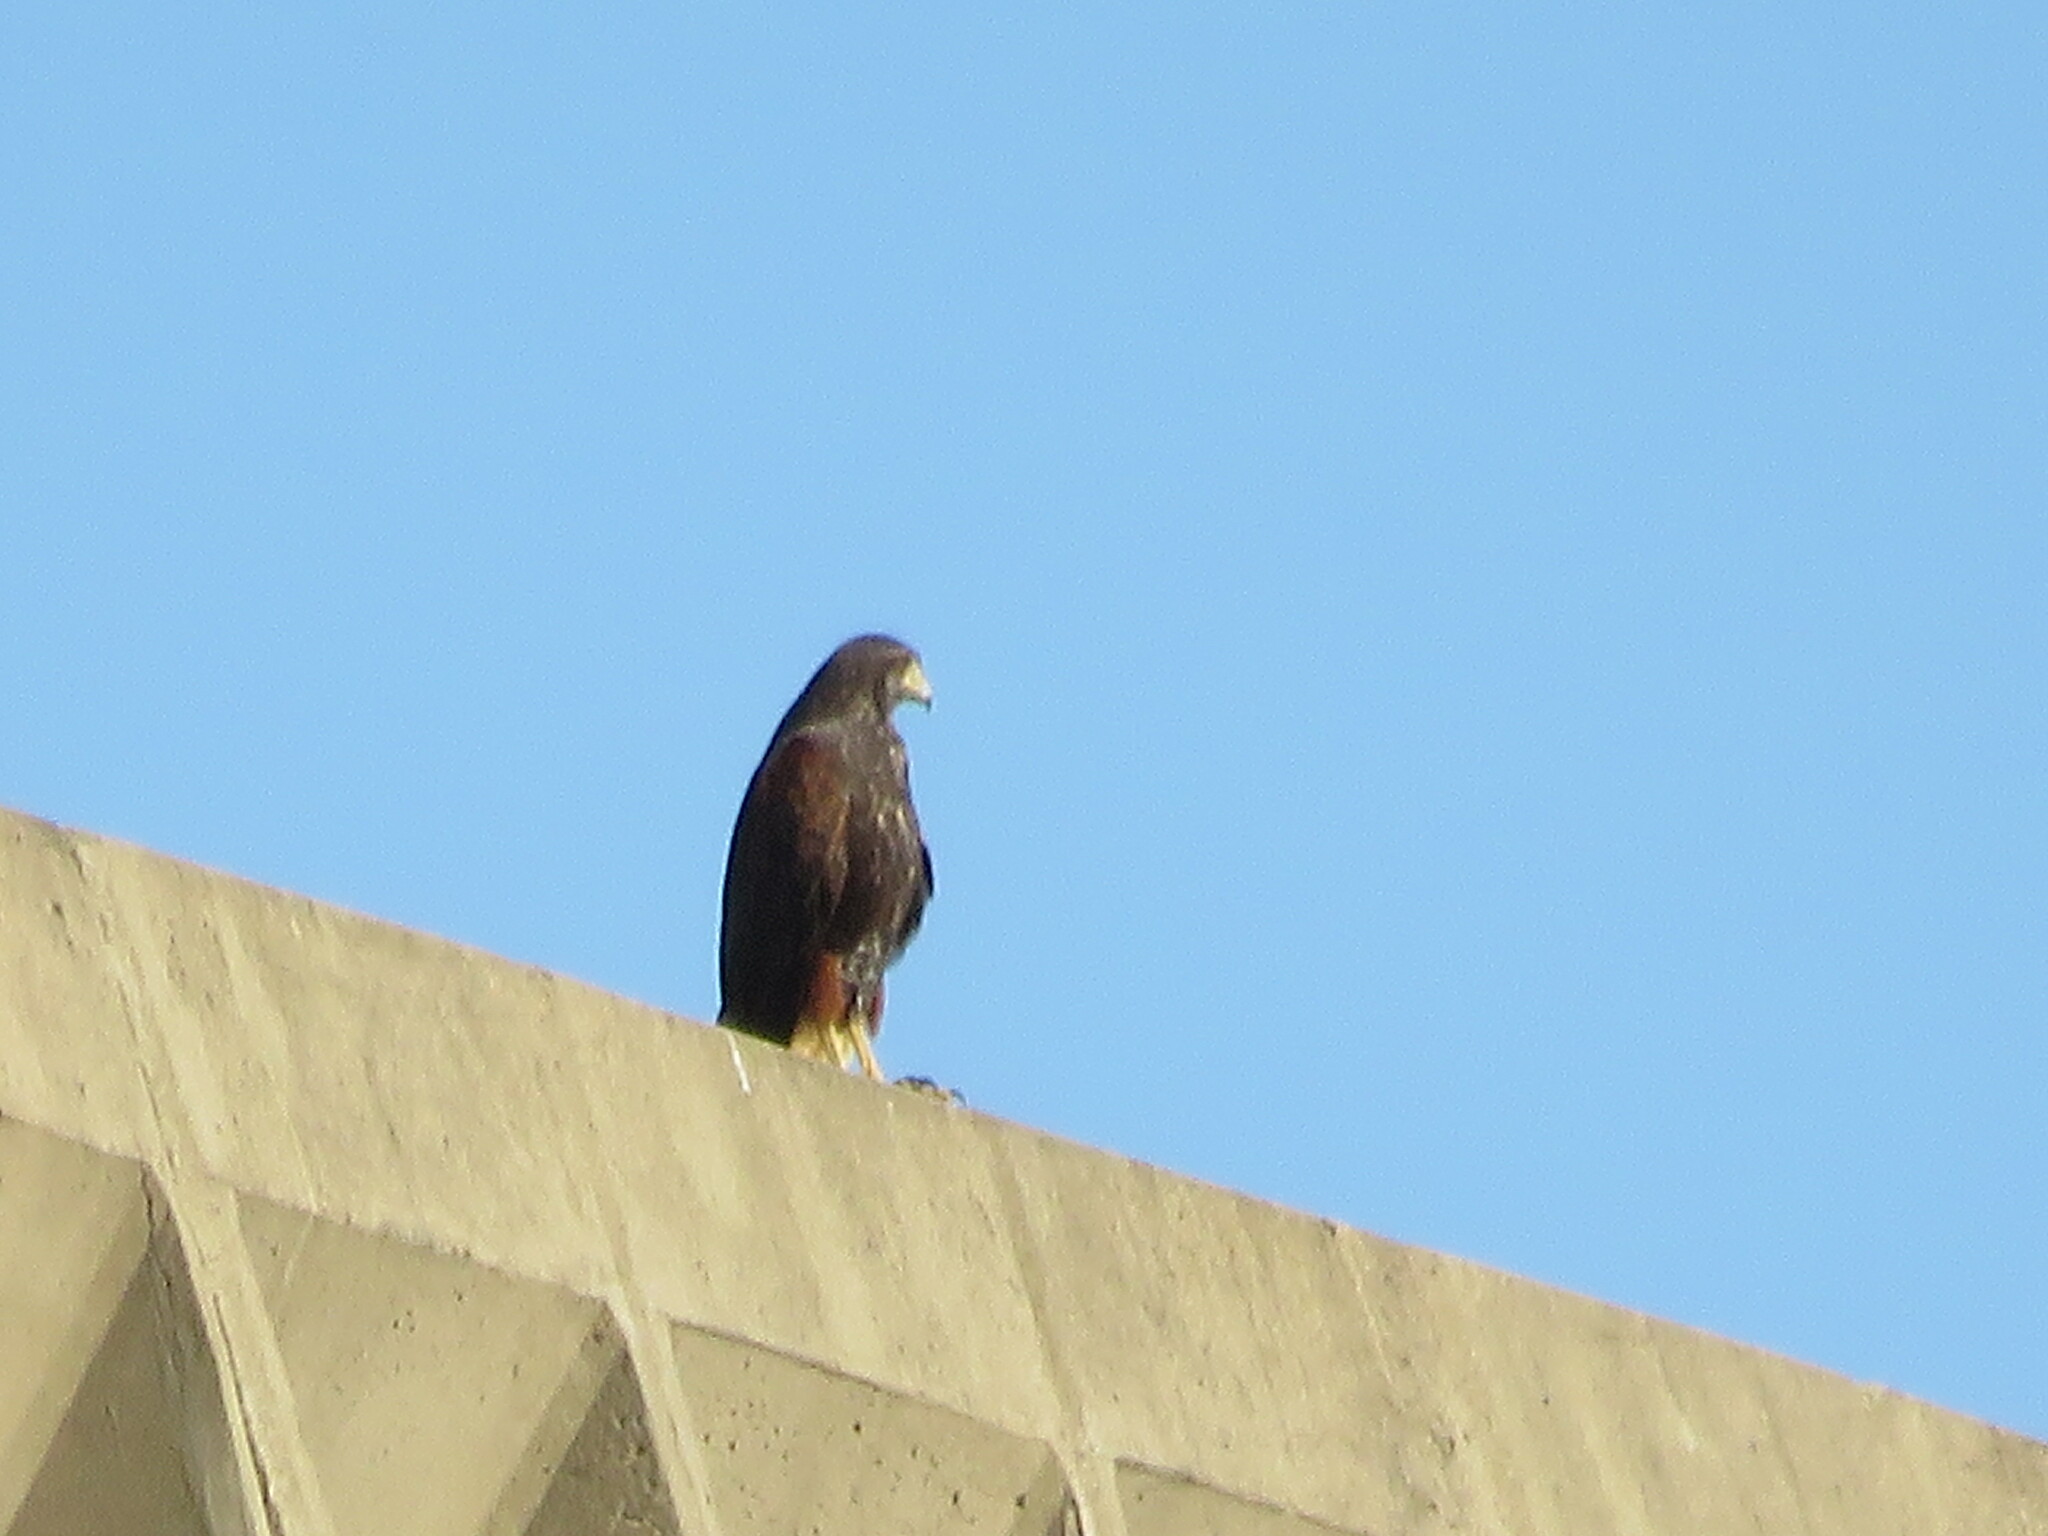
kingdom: Animalia
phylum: Chordata
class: Aves
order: Accipitriformes
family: Accipitridae
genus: Parabuteo
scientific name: Parabuteo unicinctus
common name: Harris's hawk
